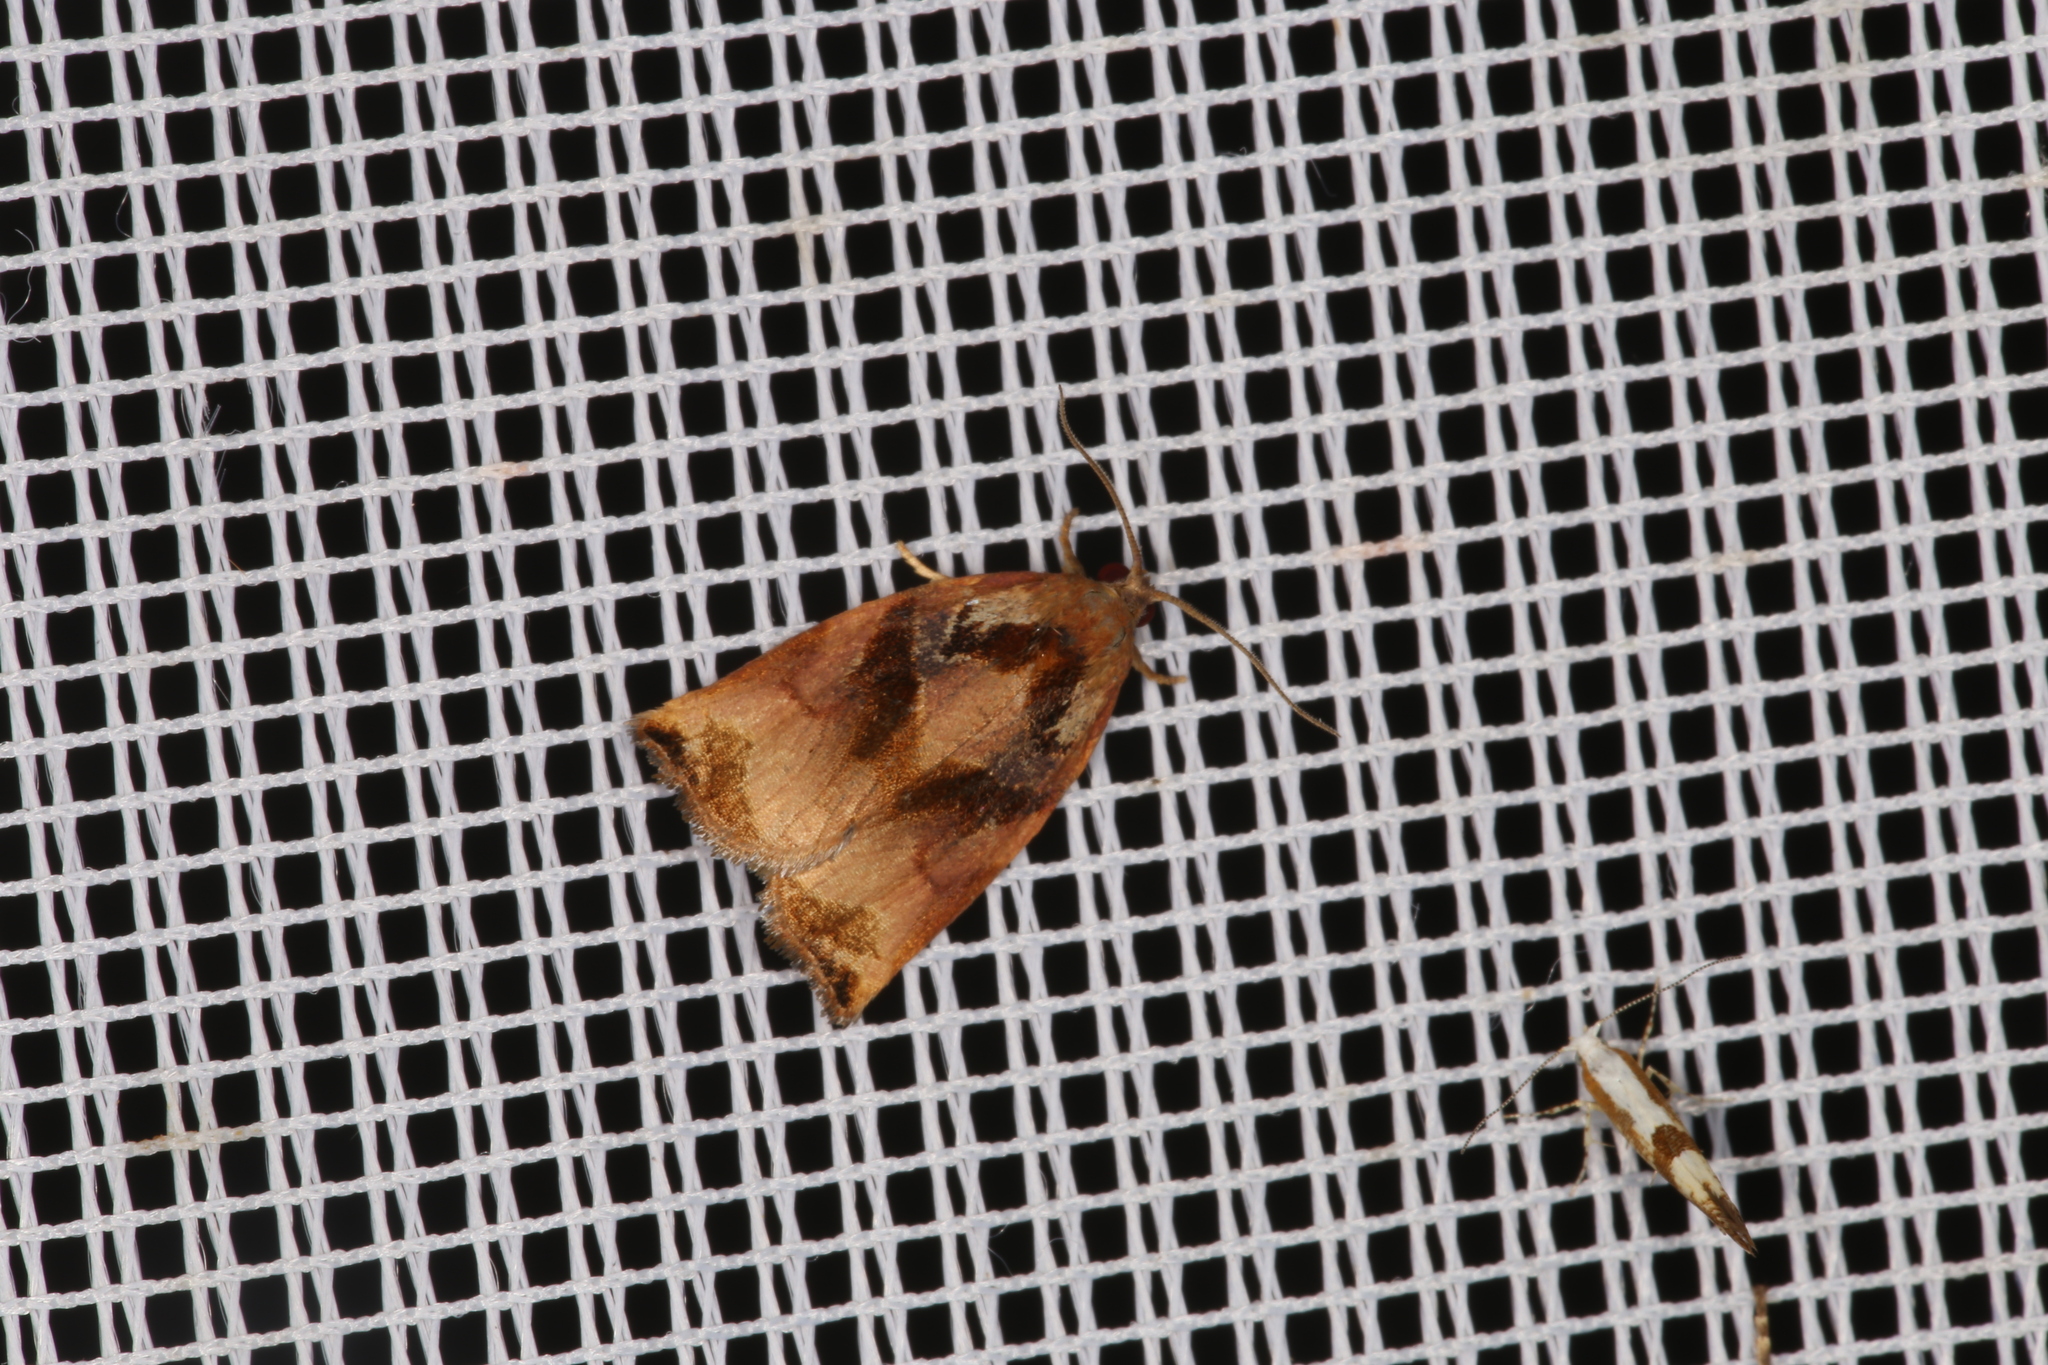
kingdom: Animalia
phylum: Arthropoda
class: Insecta
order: Lepidoptera
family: Tortricidae
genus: Archips
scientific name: Archips podana
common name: Large fruit-tree tortrix
